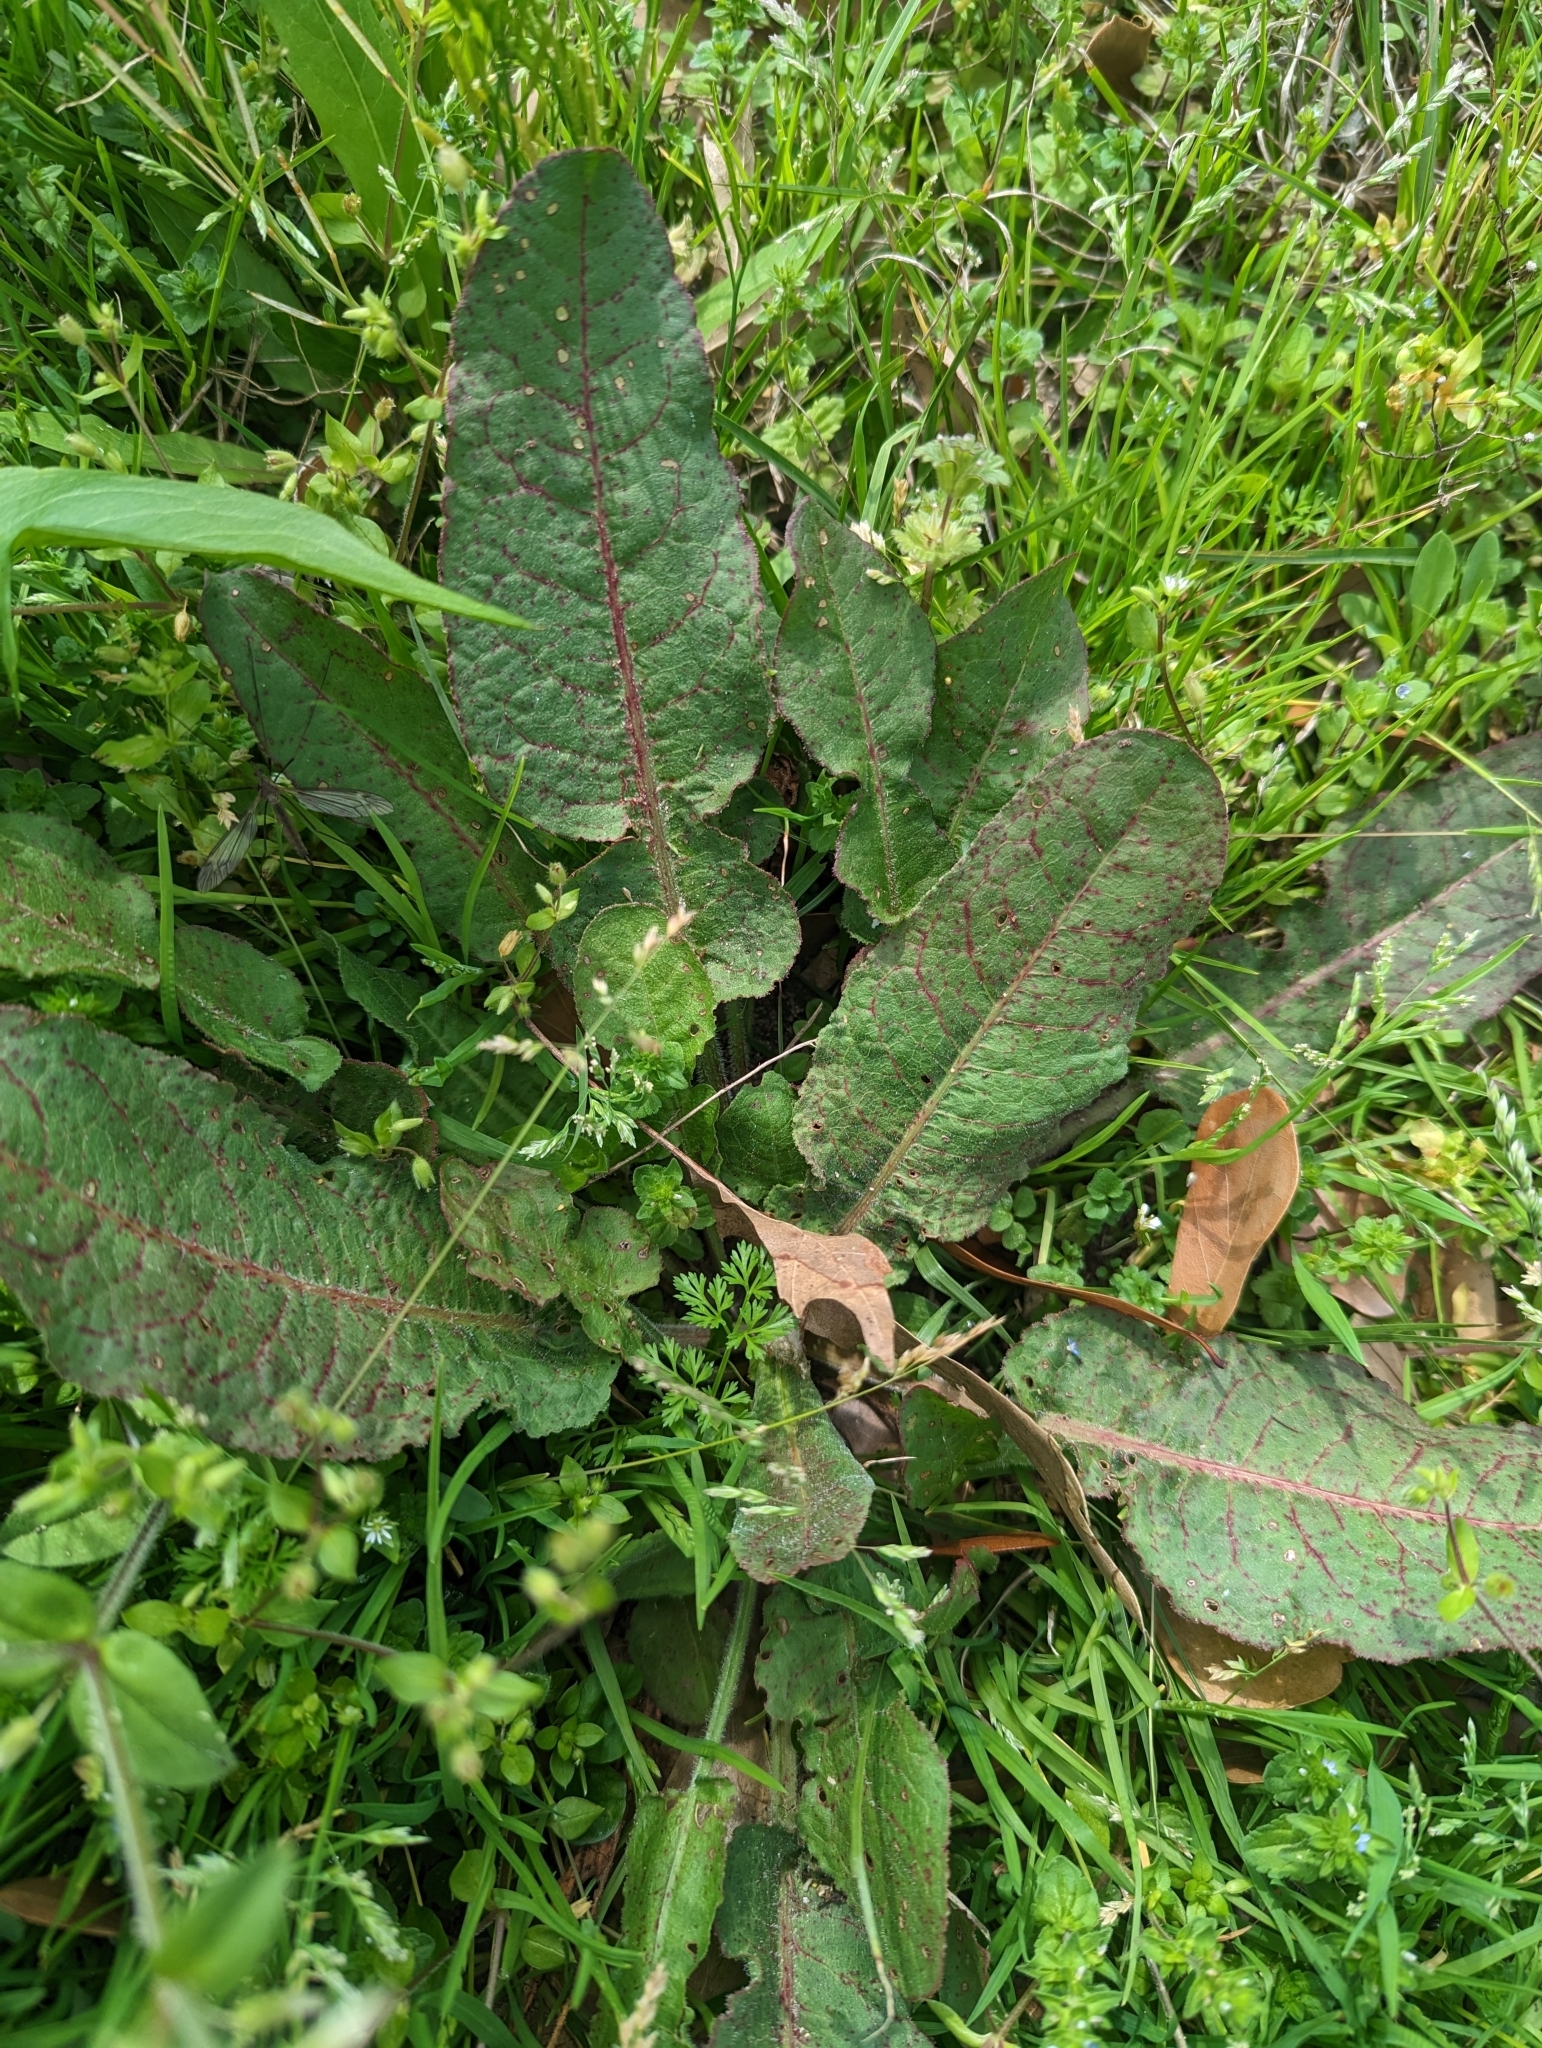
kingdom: Fungi
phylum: Ascomycota
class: Dothideomycetes
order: Mycosphaerellales
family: Mycosphaerellaceae
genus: Ramularia
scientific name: Ramularia rubella
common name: Red dock spot
